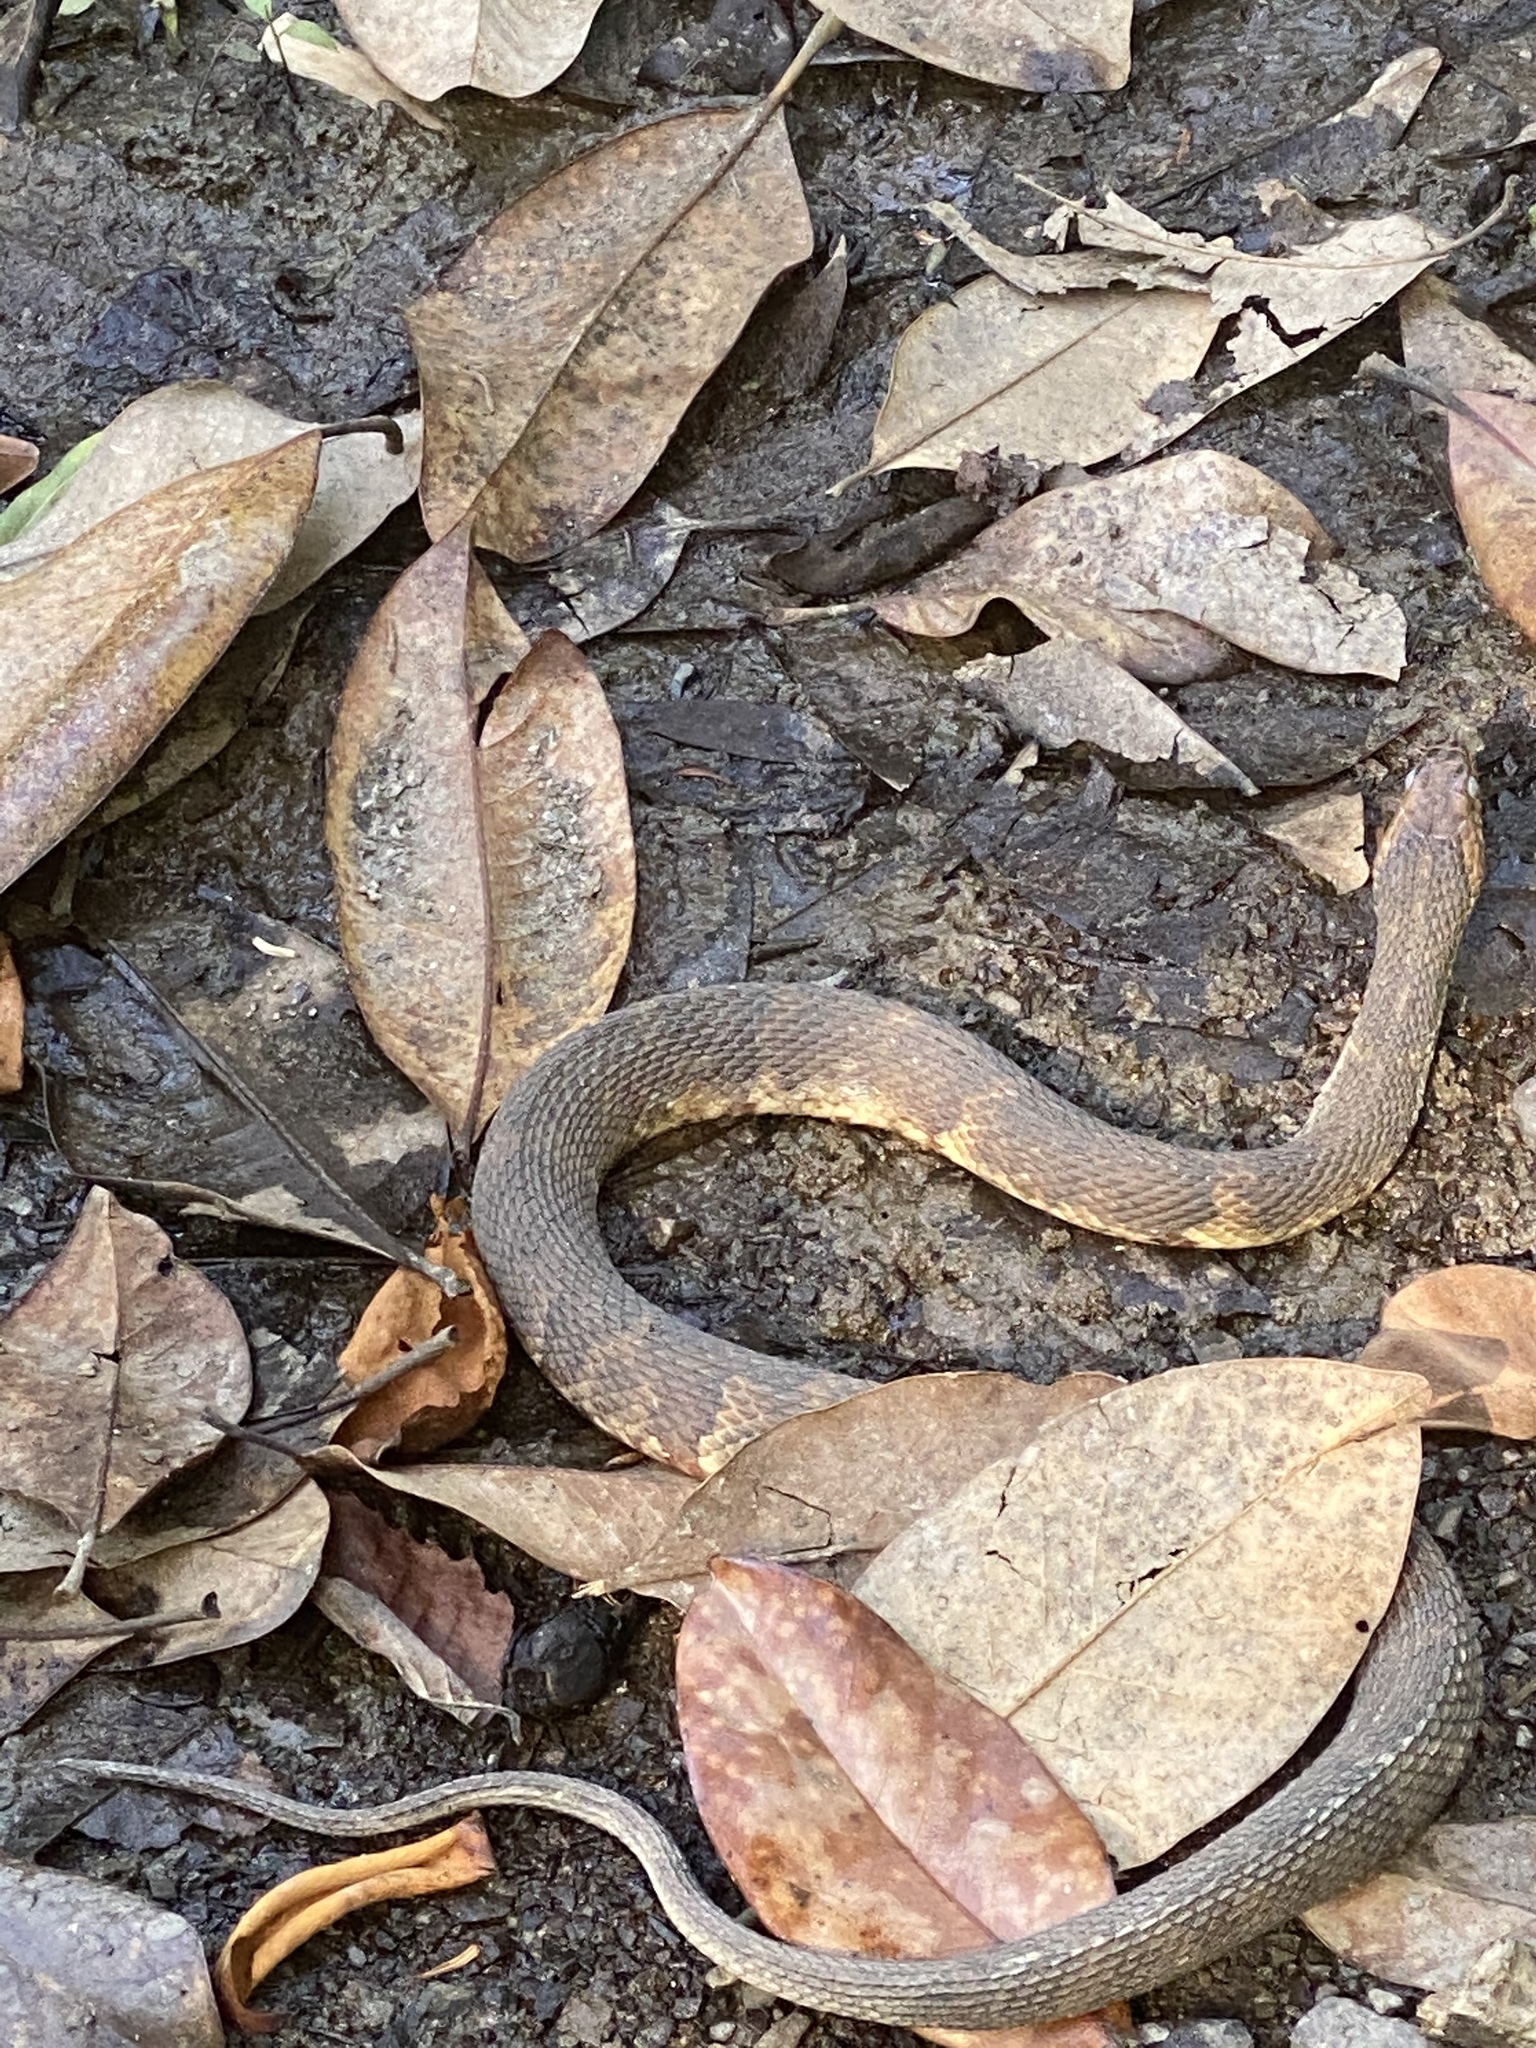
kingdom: Animalia
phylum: Chordata
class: Squamata
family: Colubridae
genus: Nerodia
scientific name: Nerodia fasciata
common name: Southern water snake
